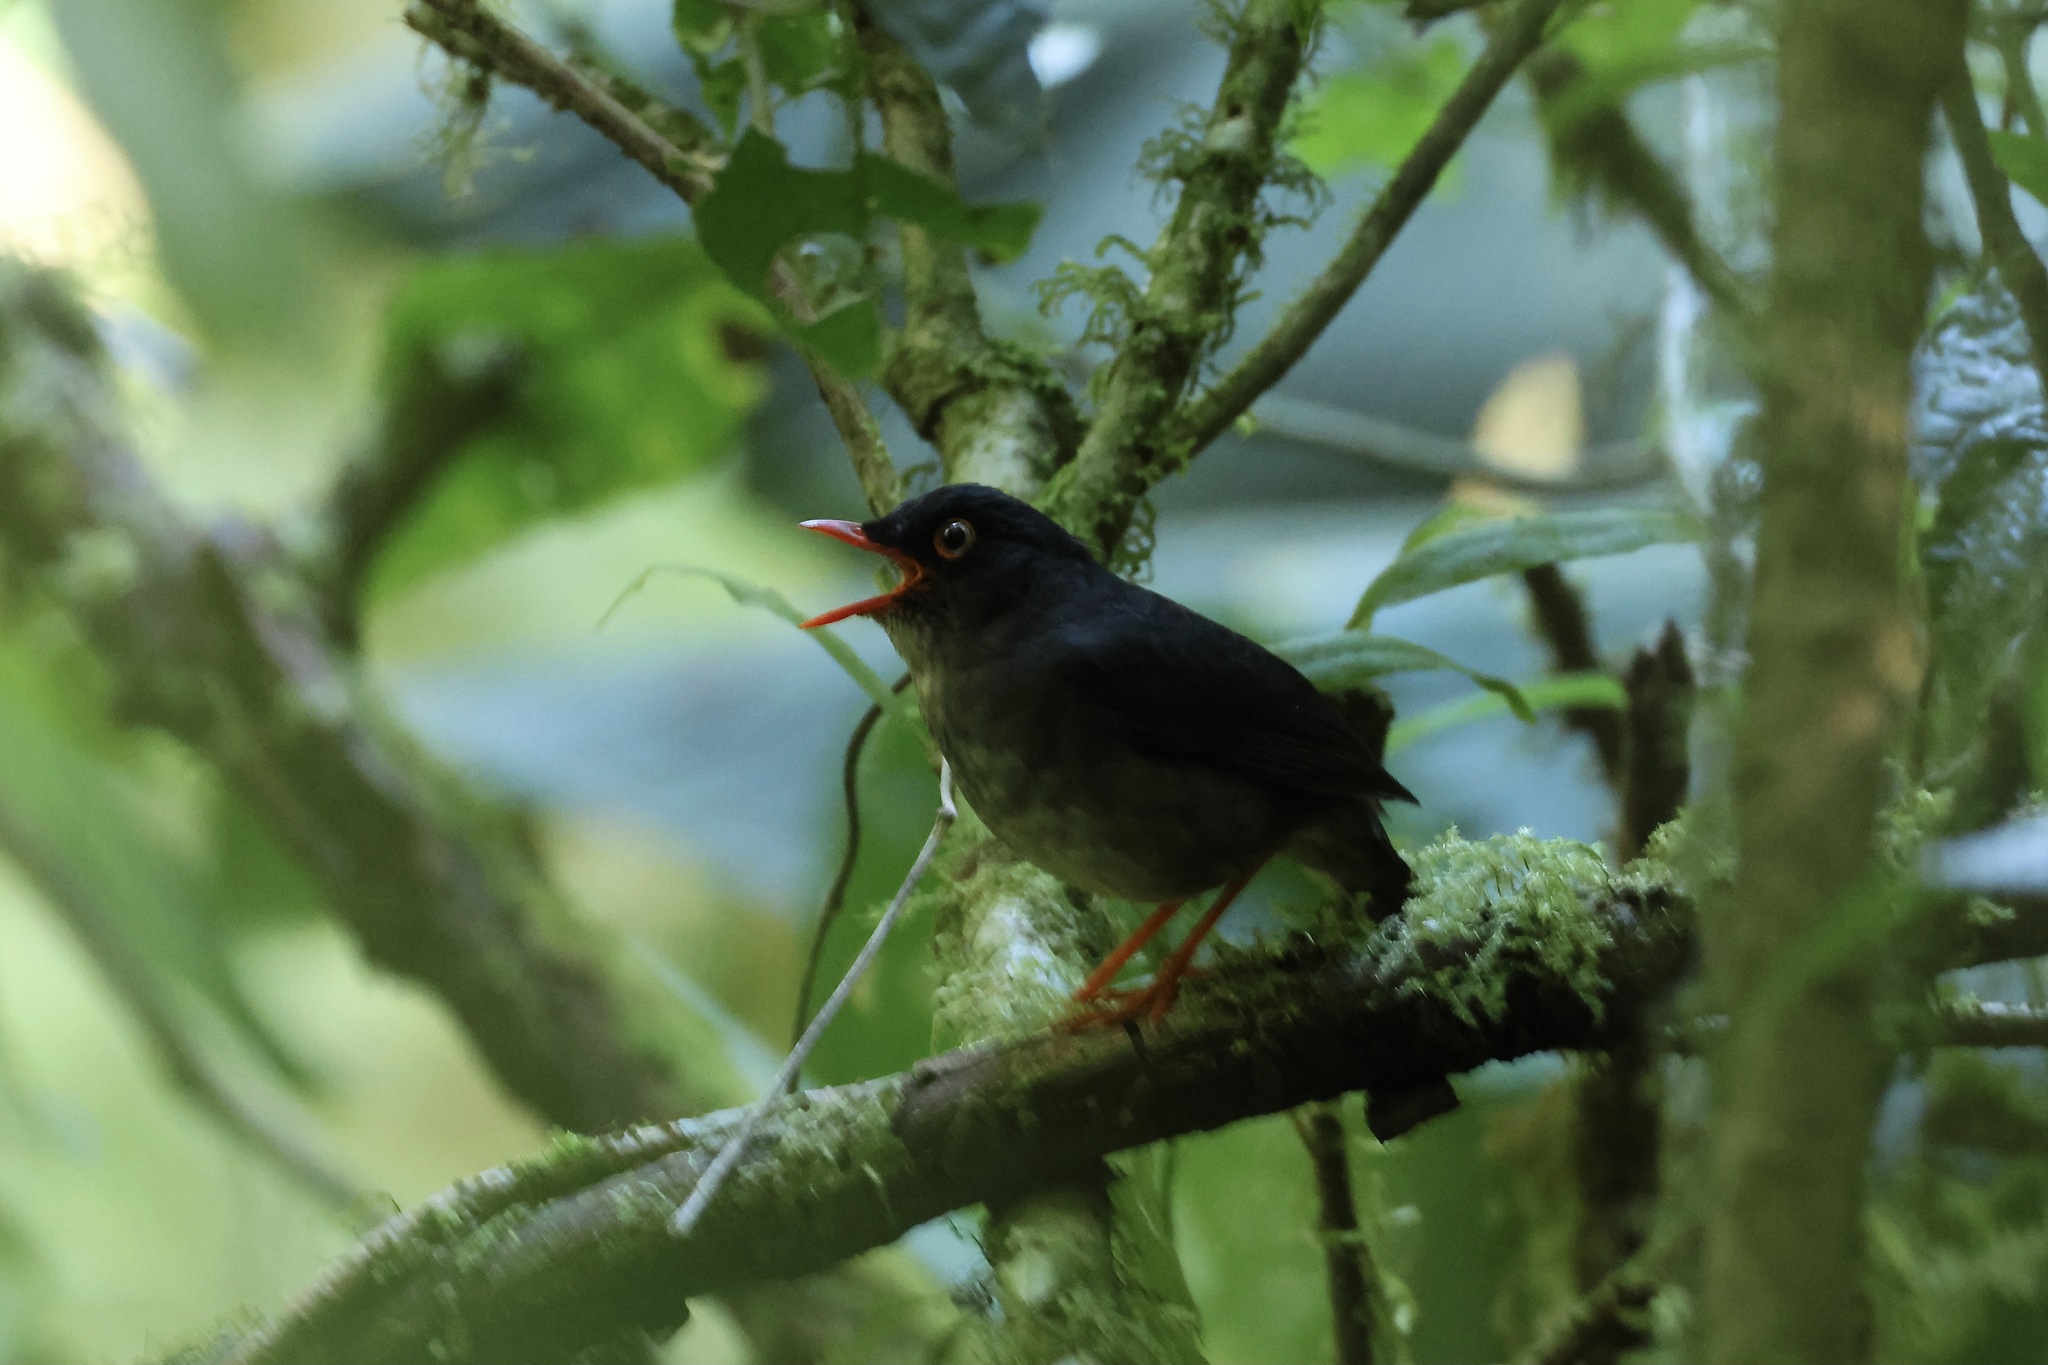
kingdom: Animalia
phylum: Chordata
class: Aves
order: Passeriformes
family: Turdidae
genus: Catharus
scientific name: Catharus fuscater
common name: Slaty-backed nightingale-thrush
